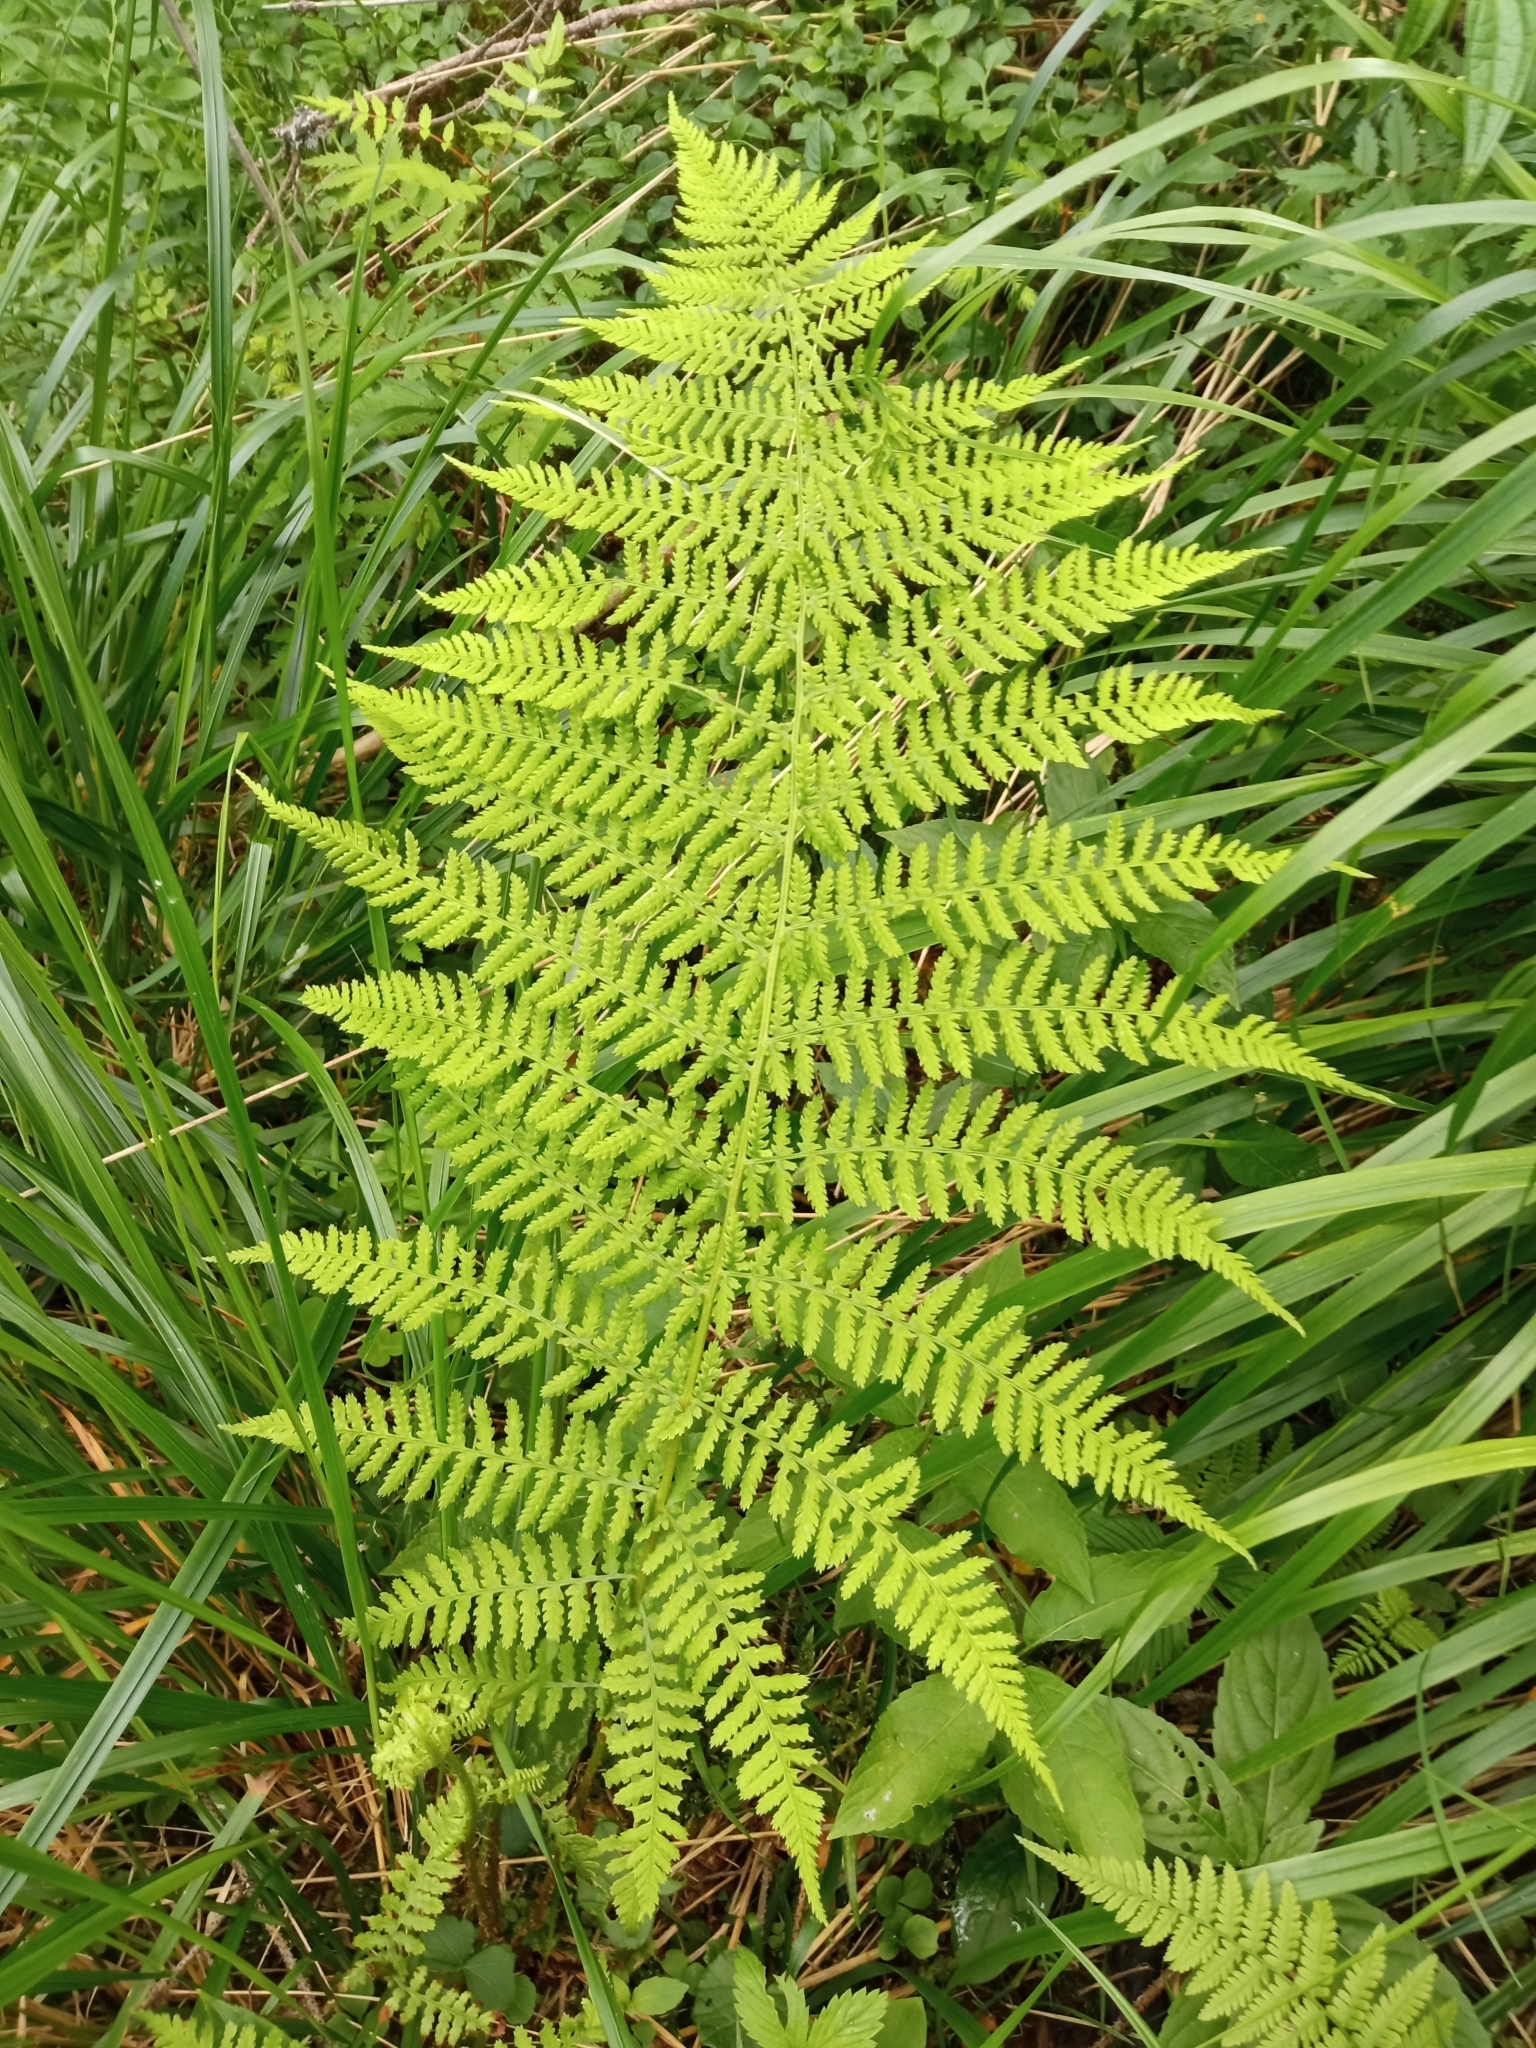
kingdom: Plantae
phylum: Tracheophyta
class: Polypodiopsida
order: Polypodiales
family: Athyriaceae
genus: Athyrium
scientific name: Athyrium filix-femina
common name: Lady fern
